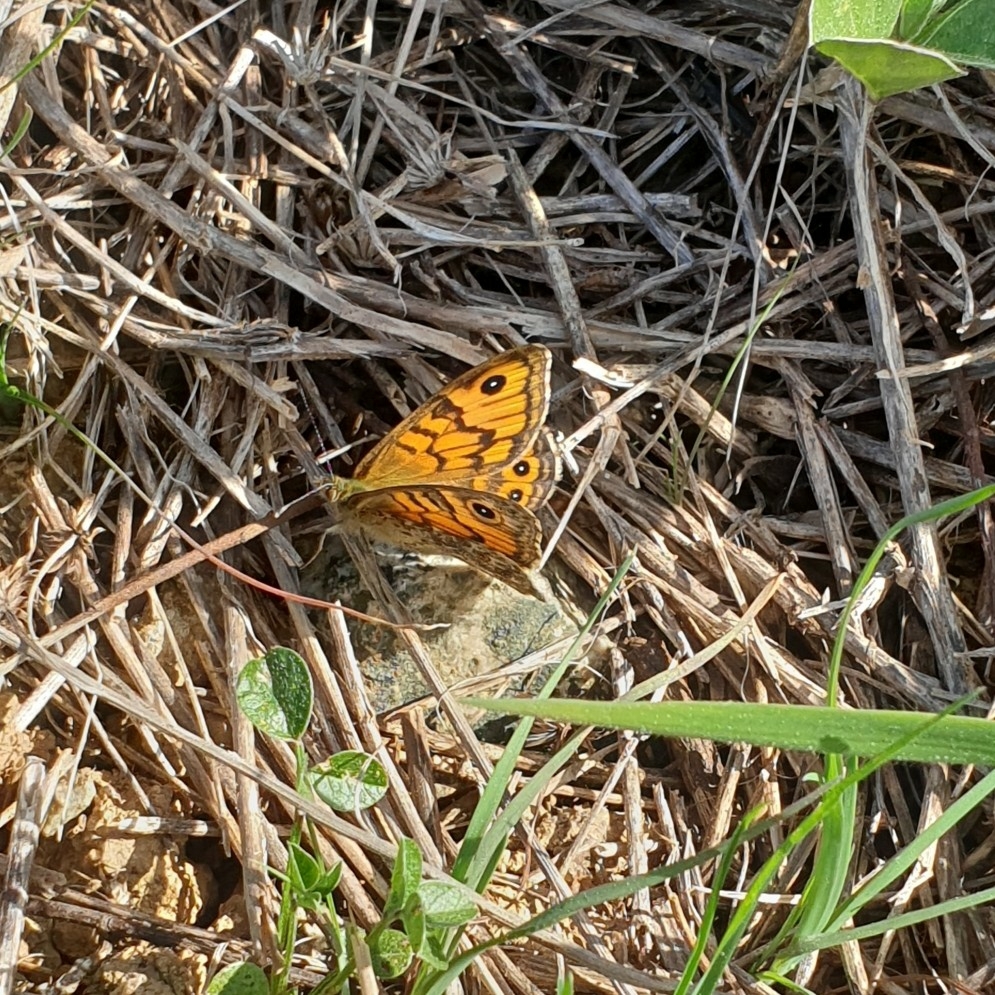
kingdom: Animalia
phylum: Arthropoda
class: Insecta
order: Lepidoptera
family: Nymphalidae
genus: Pararge
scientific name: Pararge Lasiommata megera
